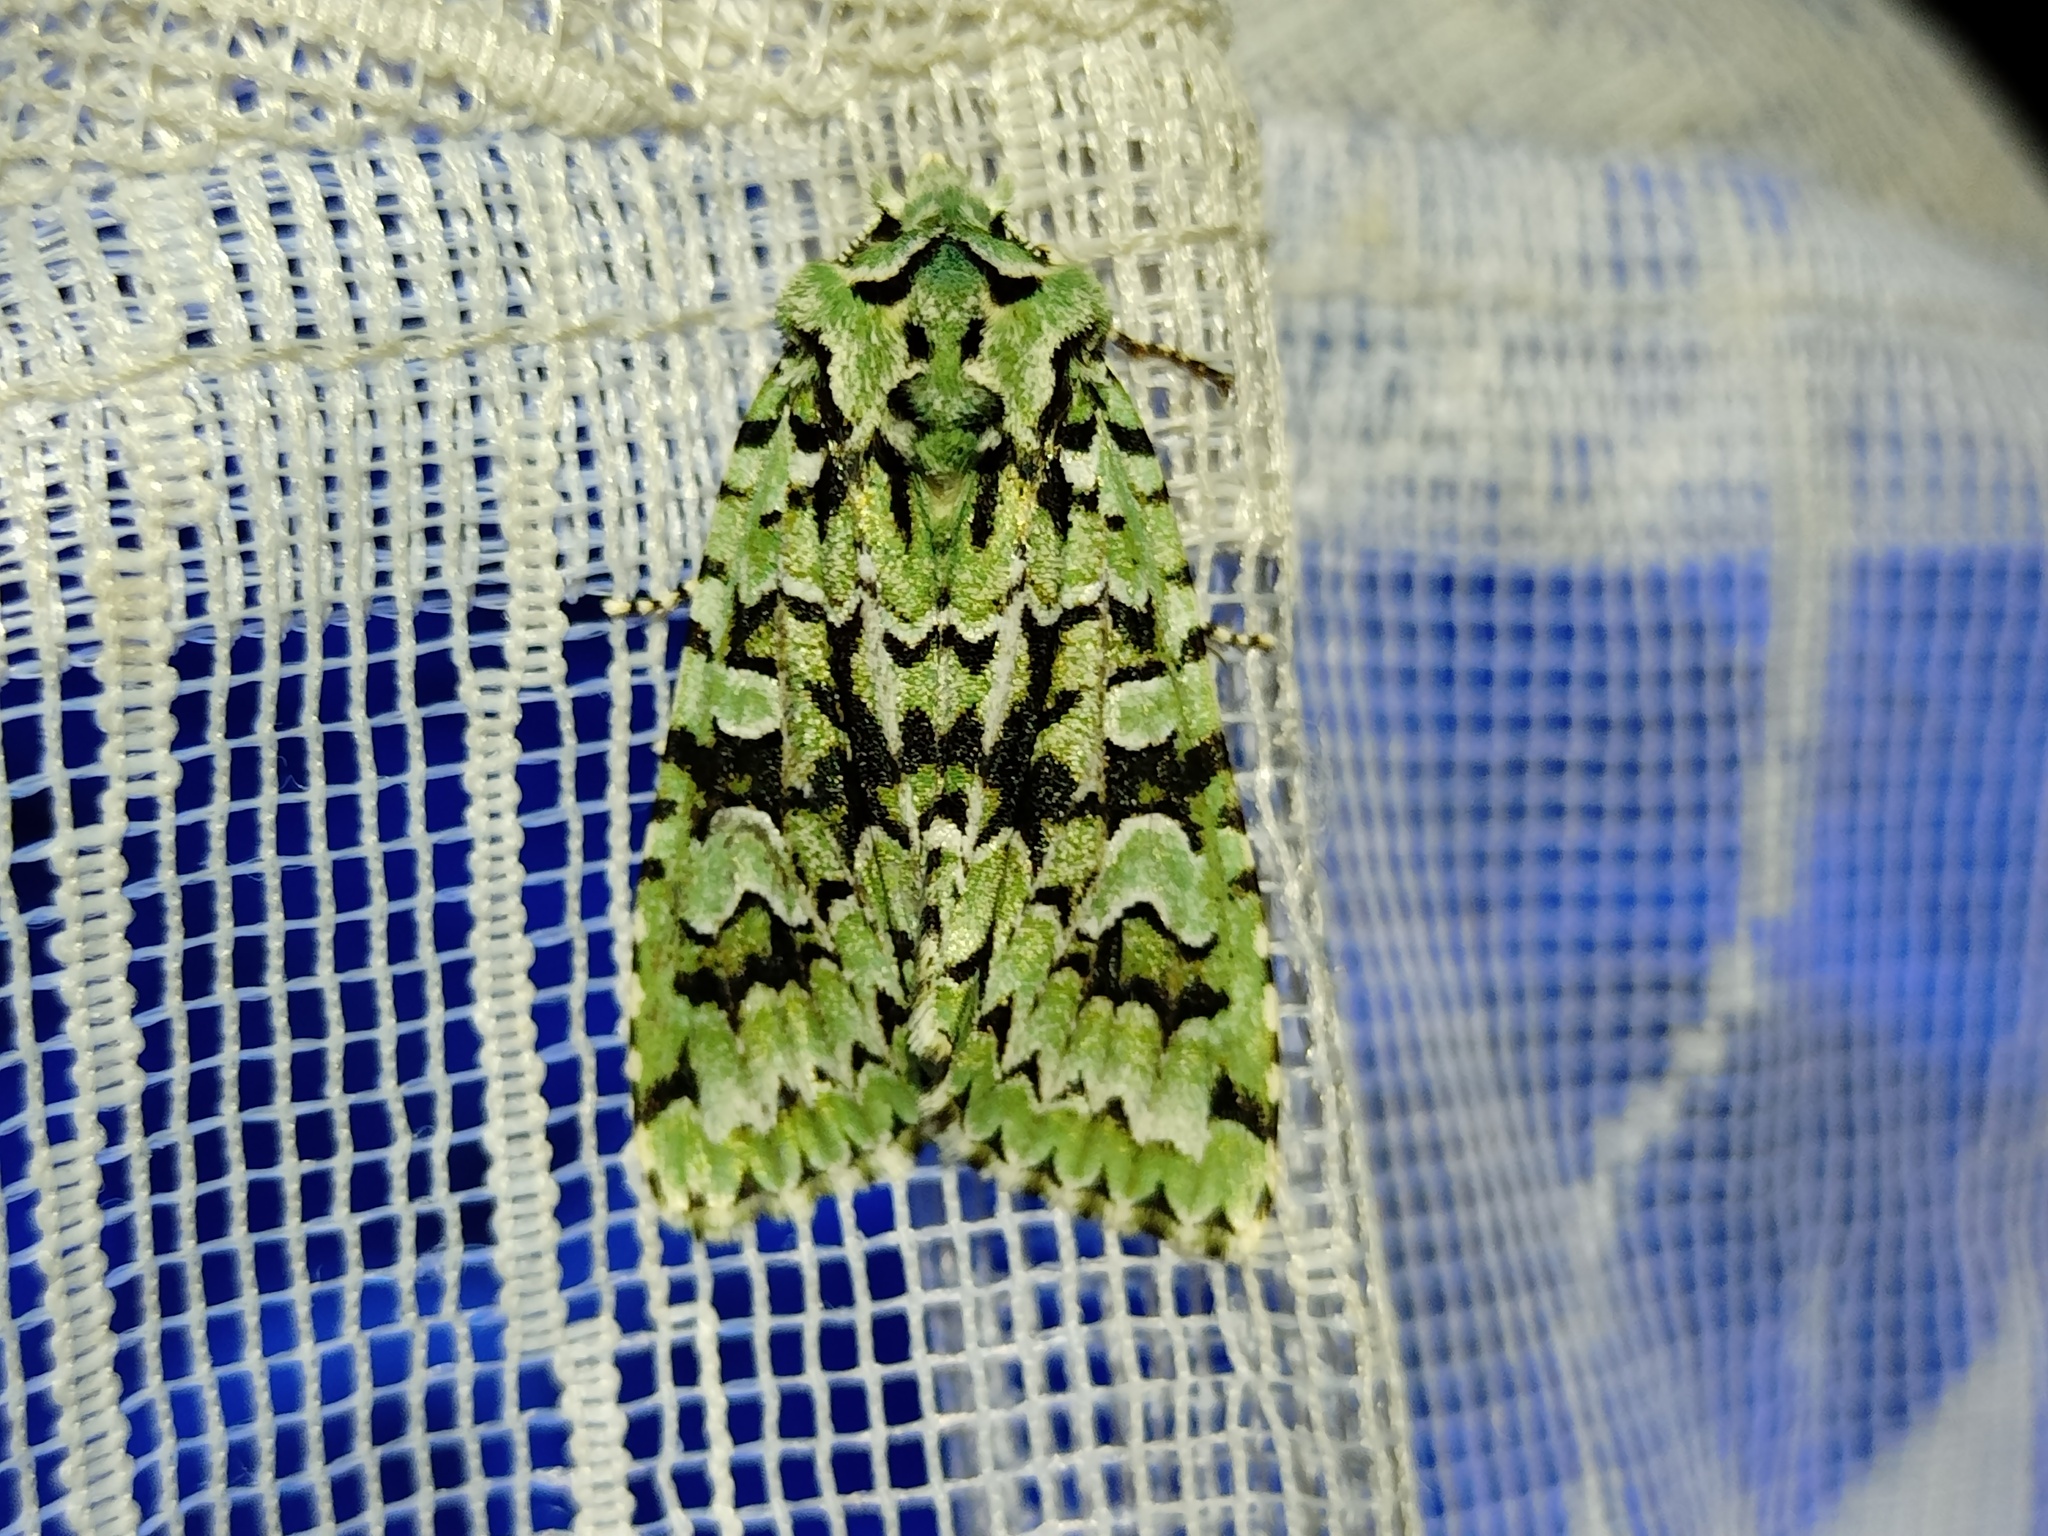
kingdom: Animalia
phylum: Arthropoda
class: Insecta
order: Lepidoptera
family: Noctuidae
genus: Griposia
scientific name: Griposia aprilina
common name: Merveille du jour
